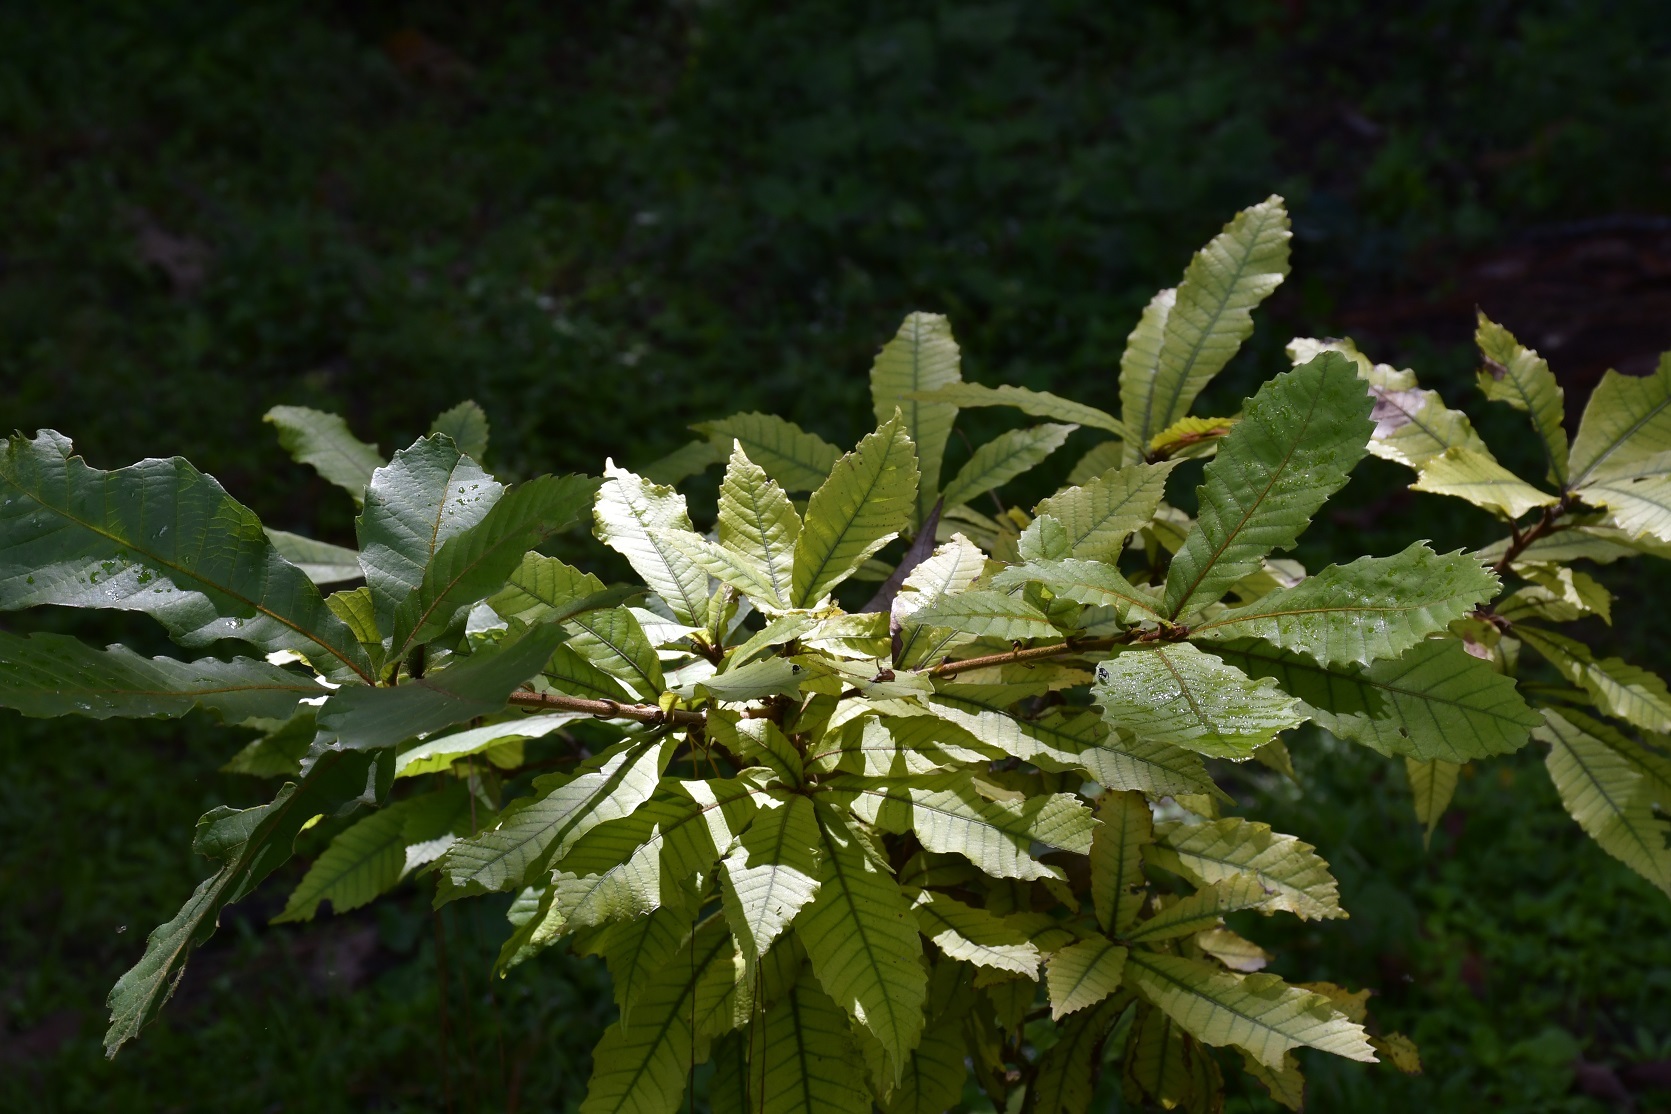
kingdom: Plantae
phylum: Tracheophyta
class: Magnoliopsida
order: Fagales
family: Fagaceae
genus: Quercus
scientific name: Quercus insignis
